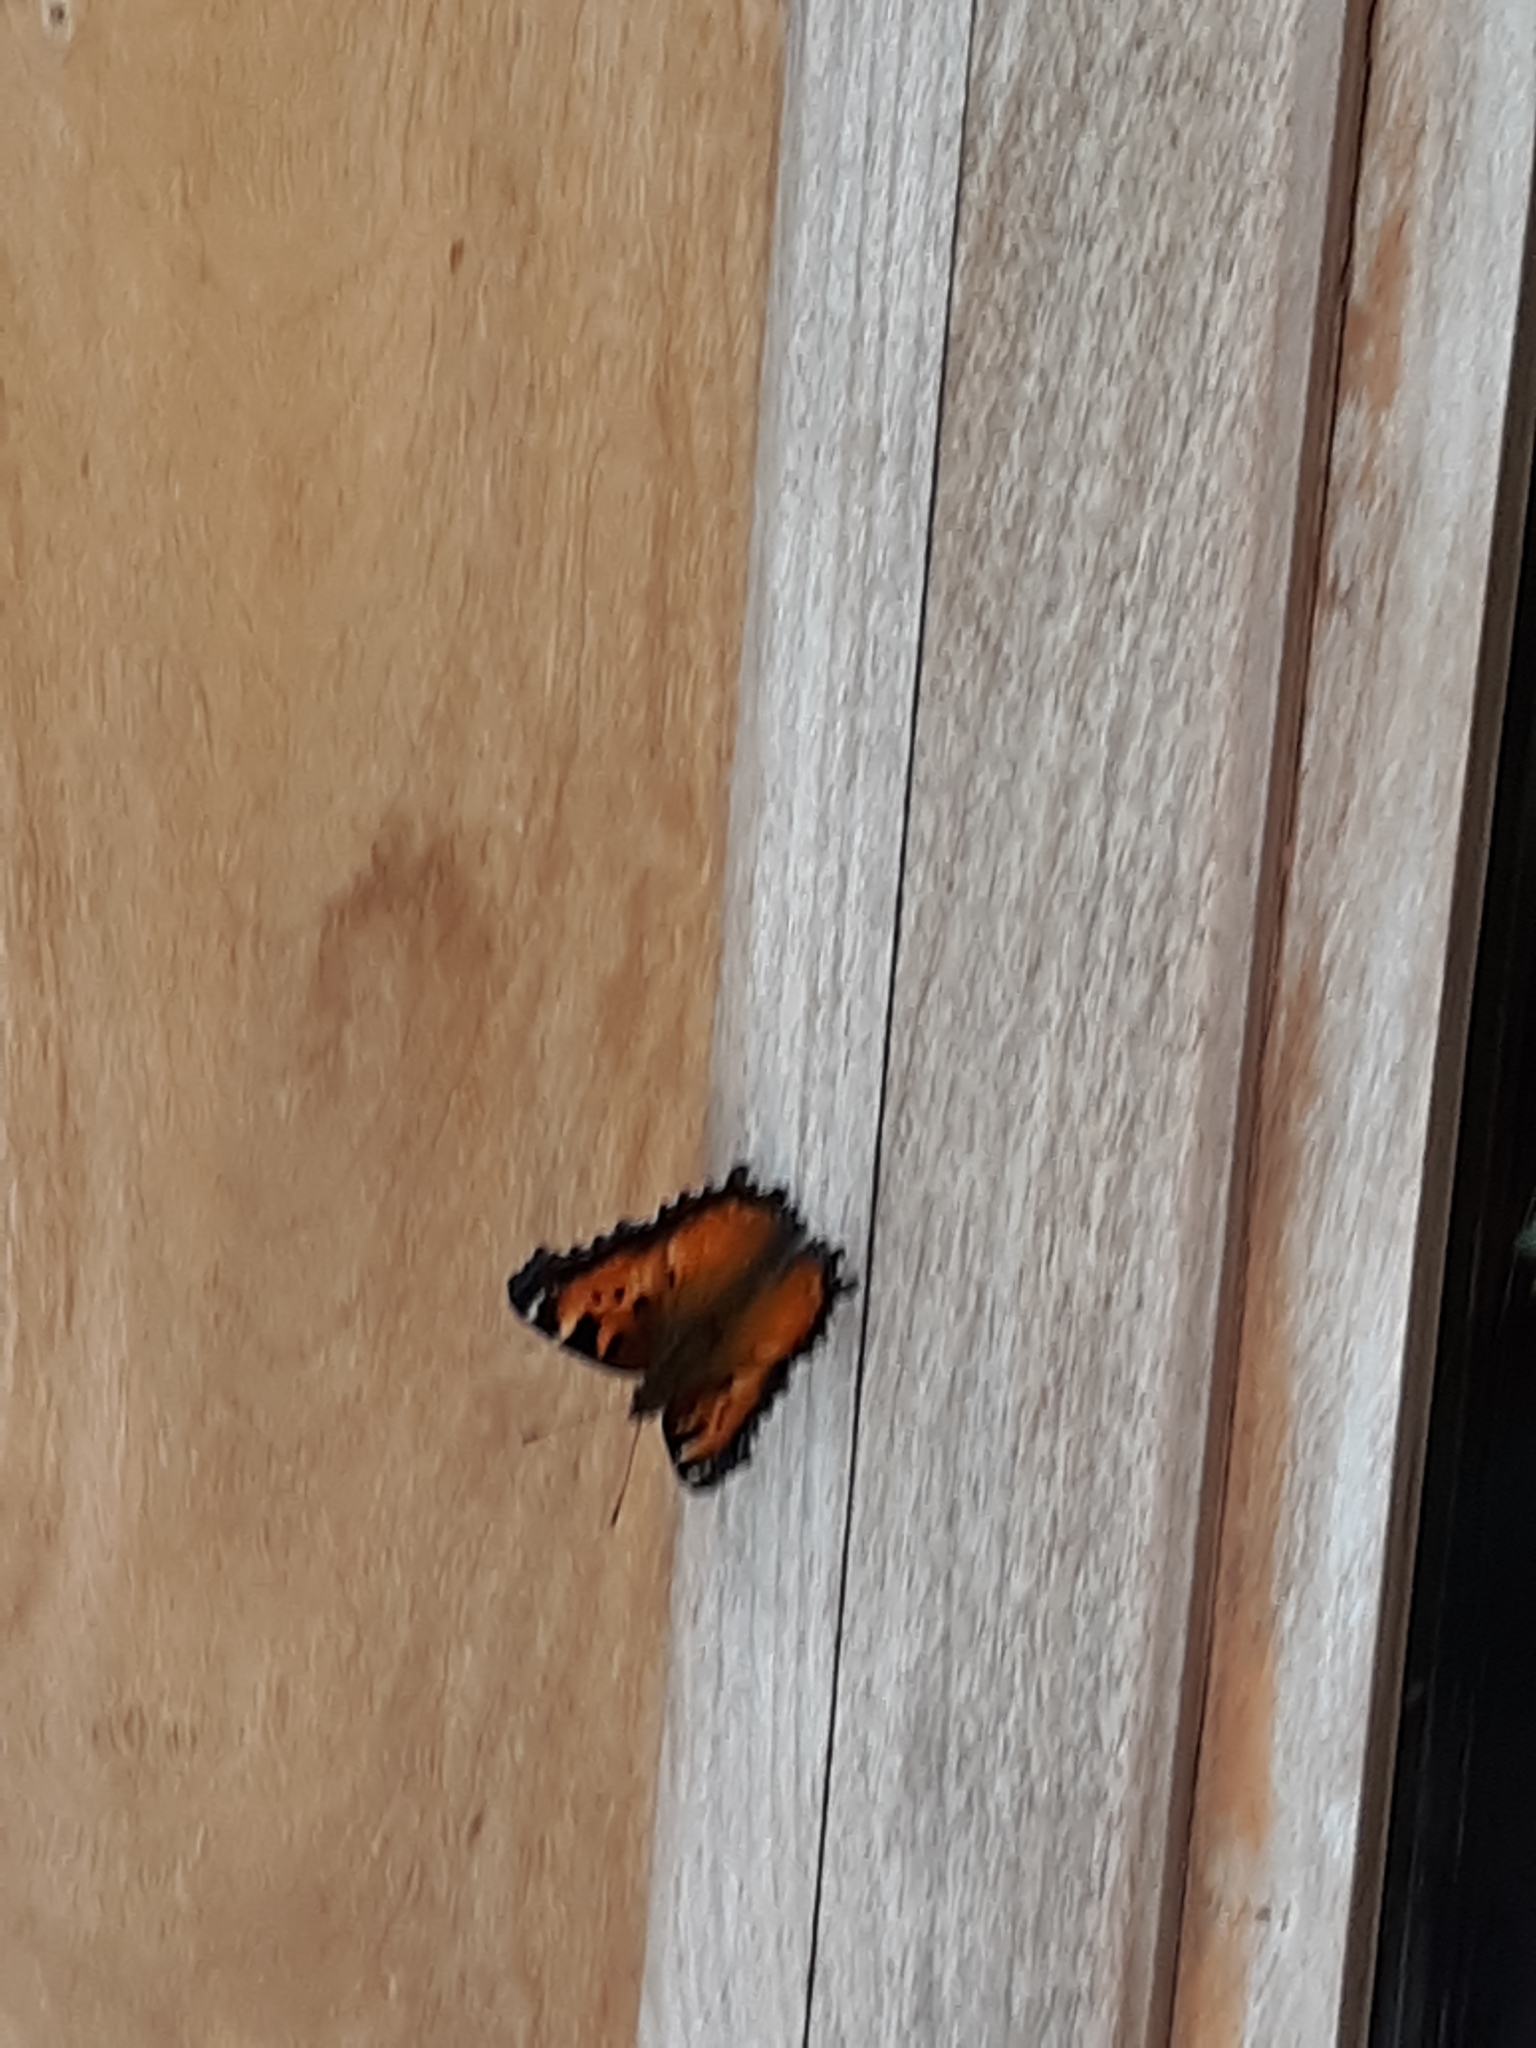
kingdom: Animalia
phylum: Arthropoda
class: Insecta
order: Lepidoptera
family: Nymphalidae
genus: Nymphalis
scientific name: Nymphalis californica
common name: California tortoiseshell
